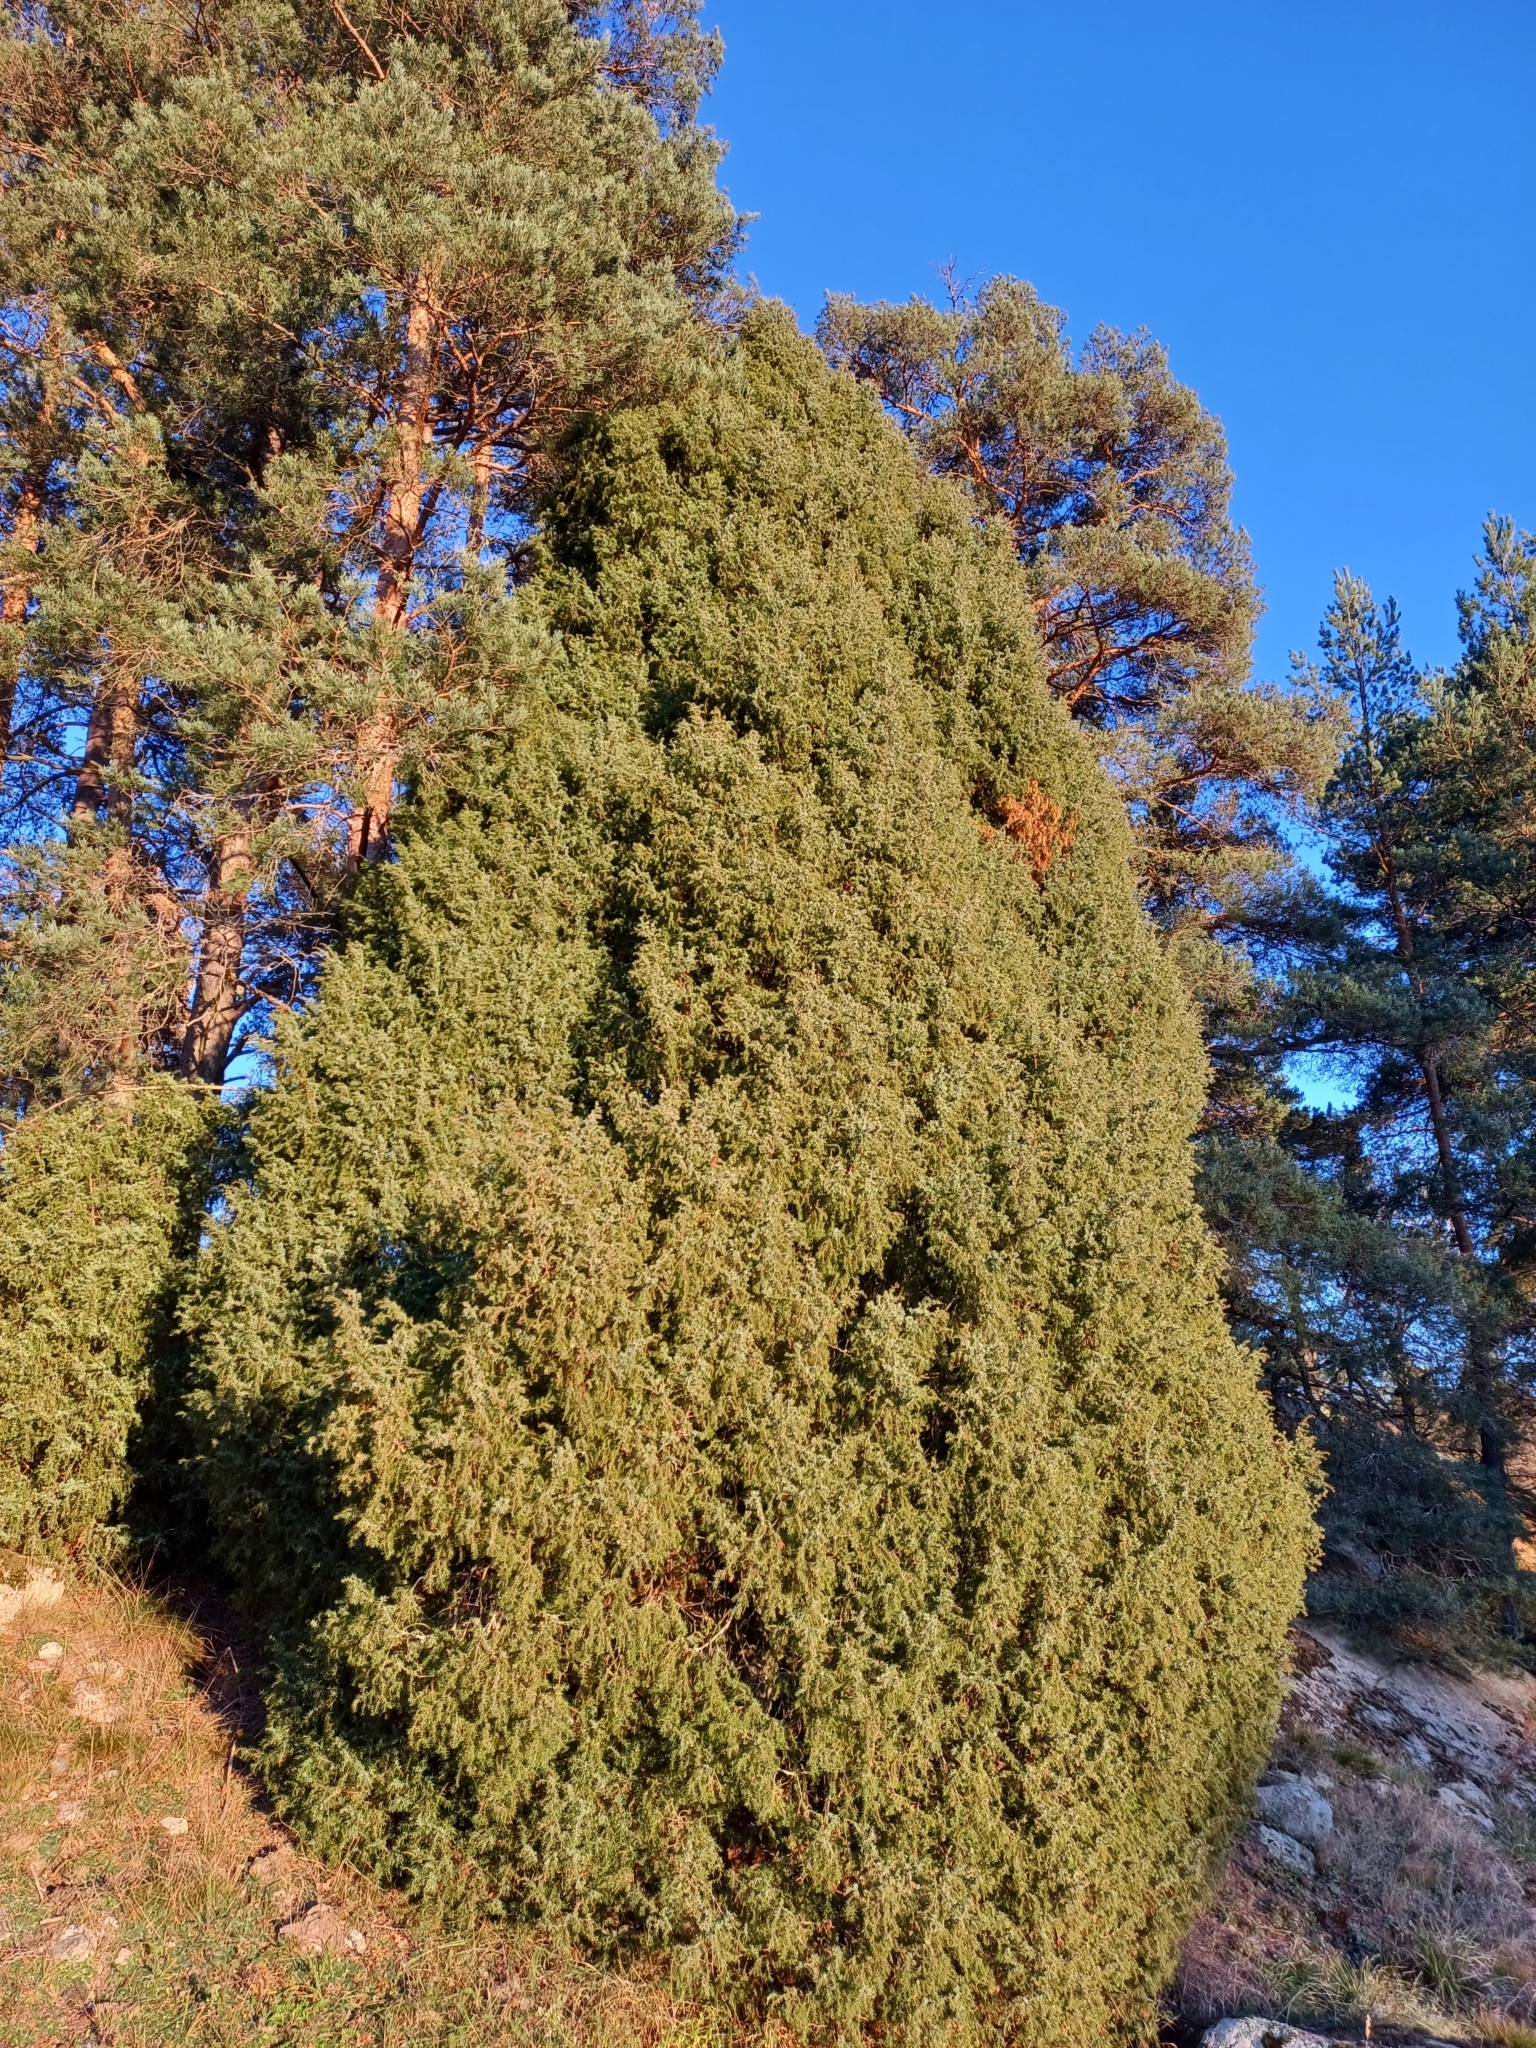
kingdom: Plantae
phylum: Tracheophyta
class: Pinopsida
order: Pinales
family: Cupressaceae
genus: Juniperus
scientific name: Juniperus communis
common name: Common juniper
